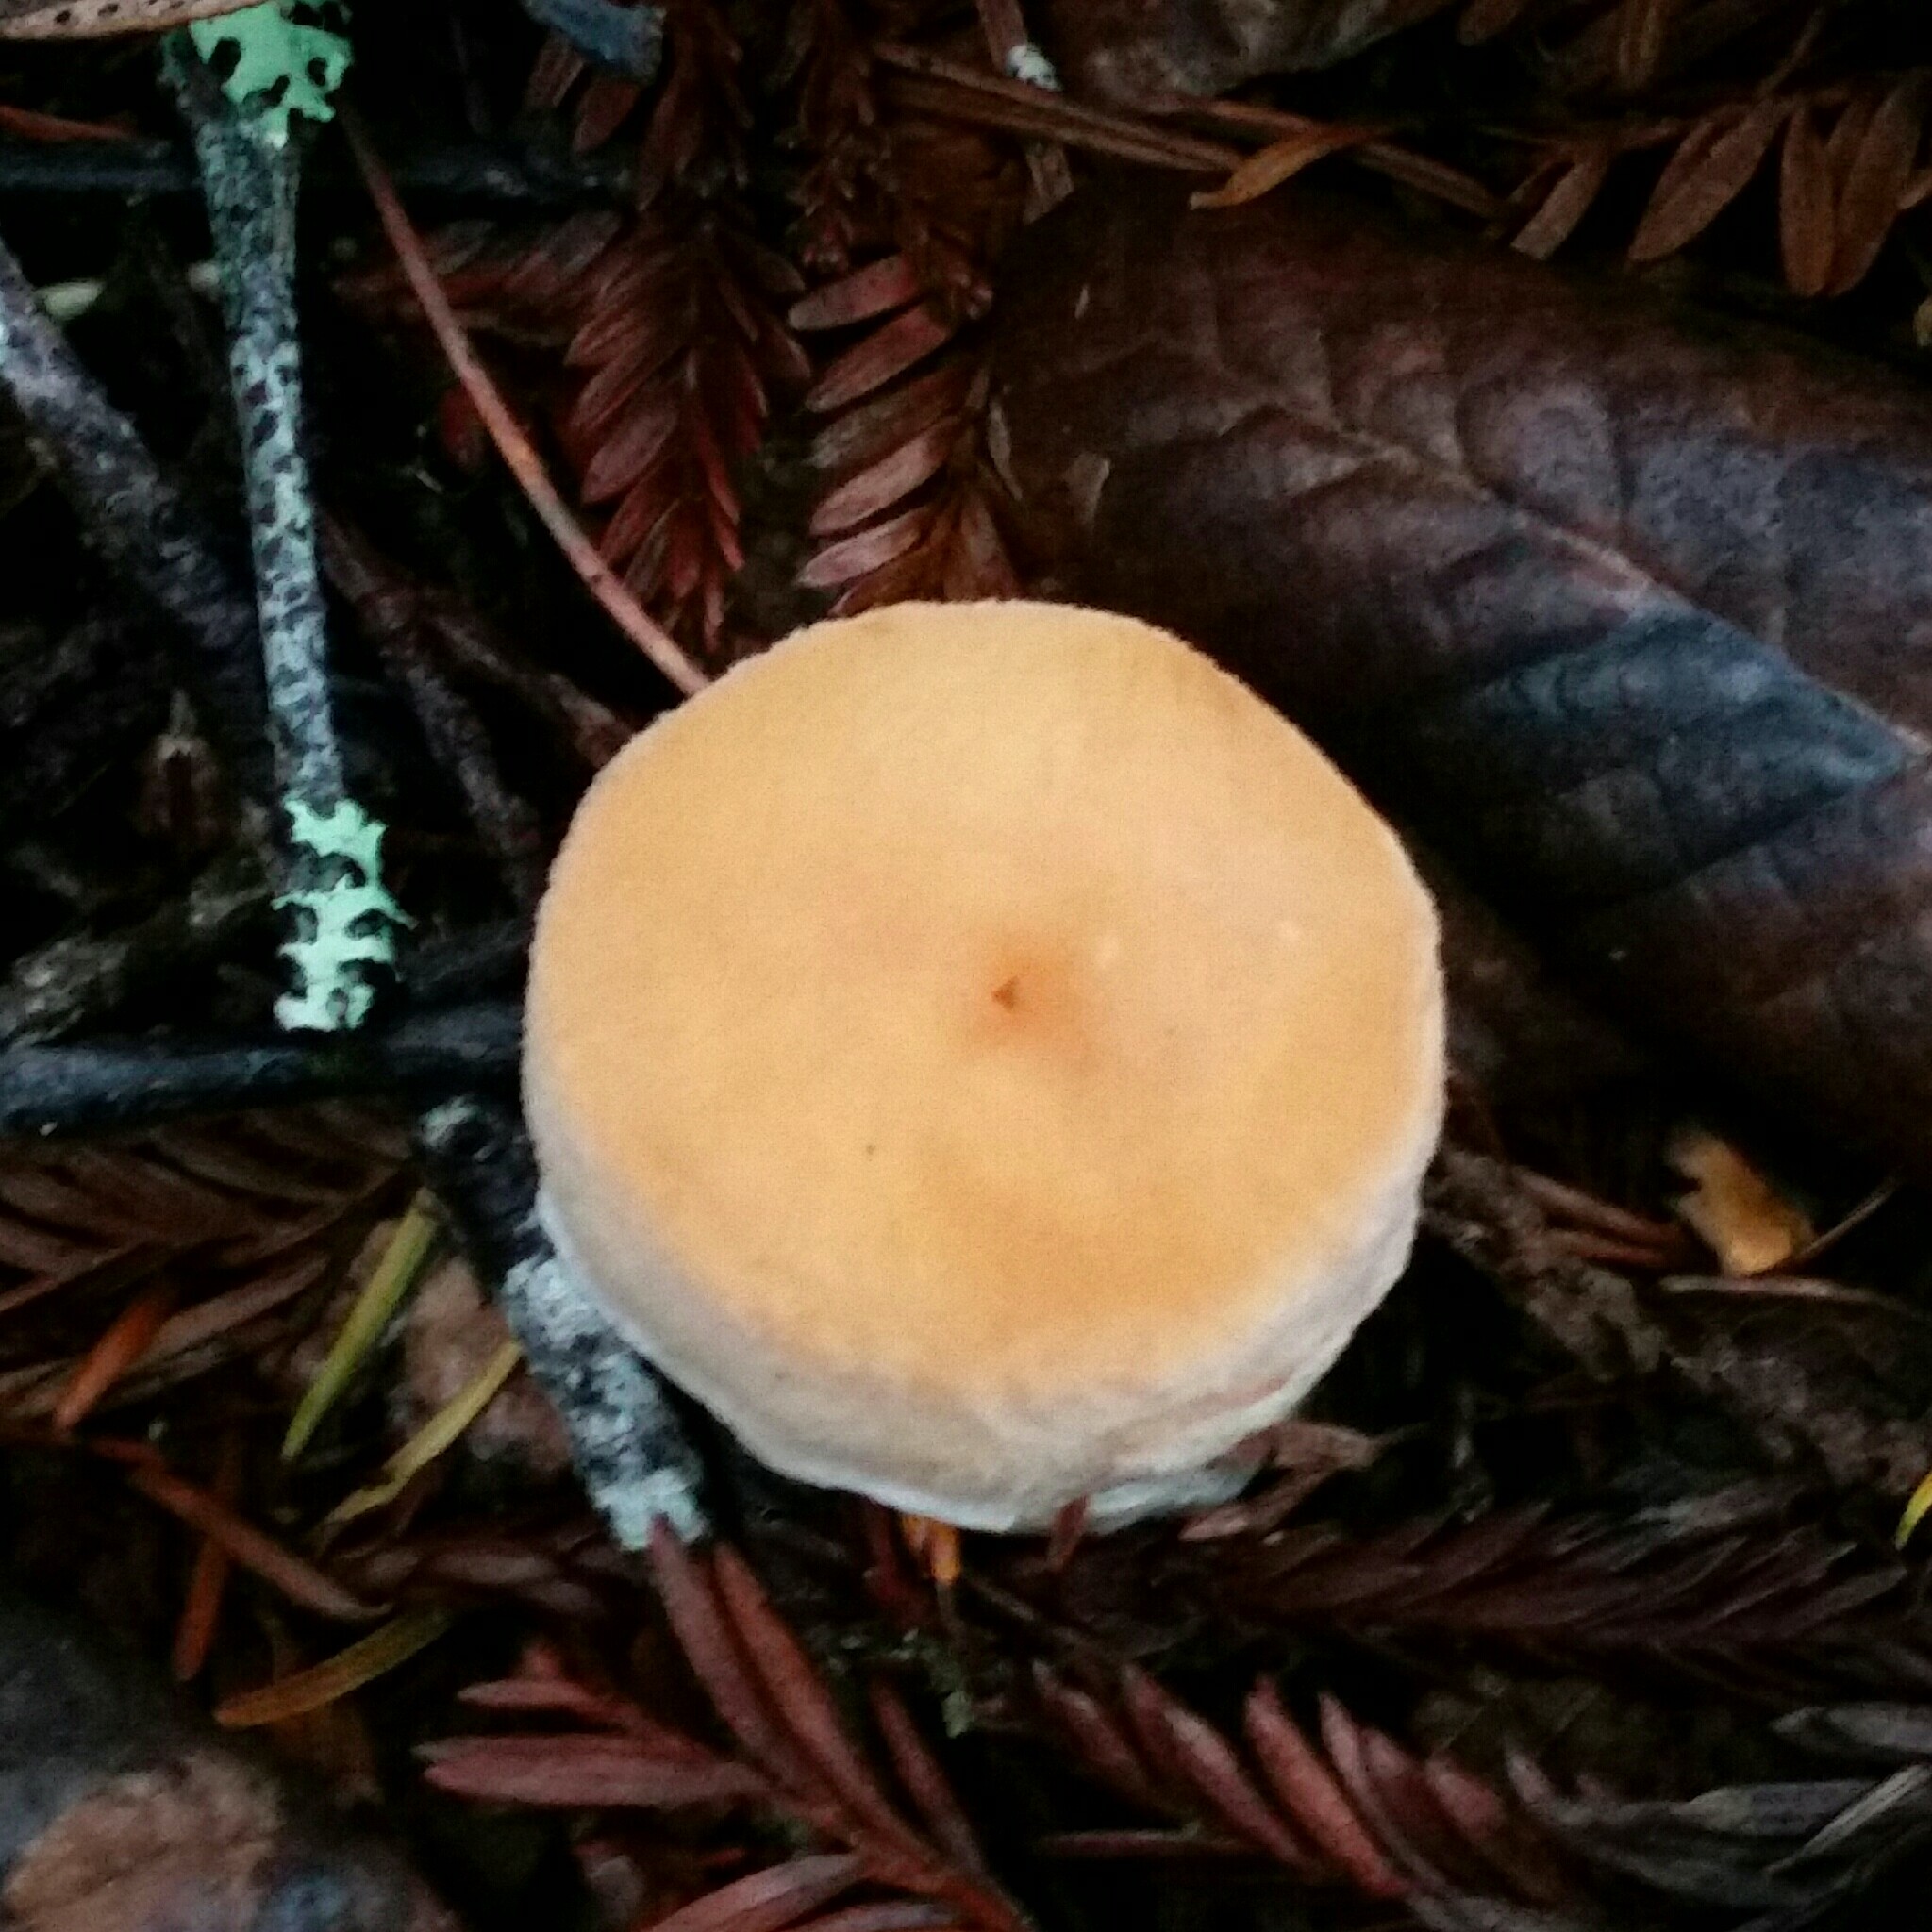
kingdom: Fungi
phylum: Basidiomycota
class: Agaricomycetes
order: Cantharellales
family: Hydnaceae
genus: Hydnum
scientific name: Hydnum oregonense
